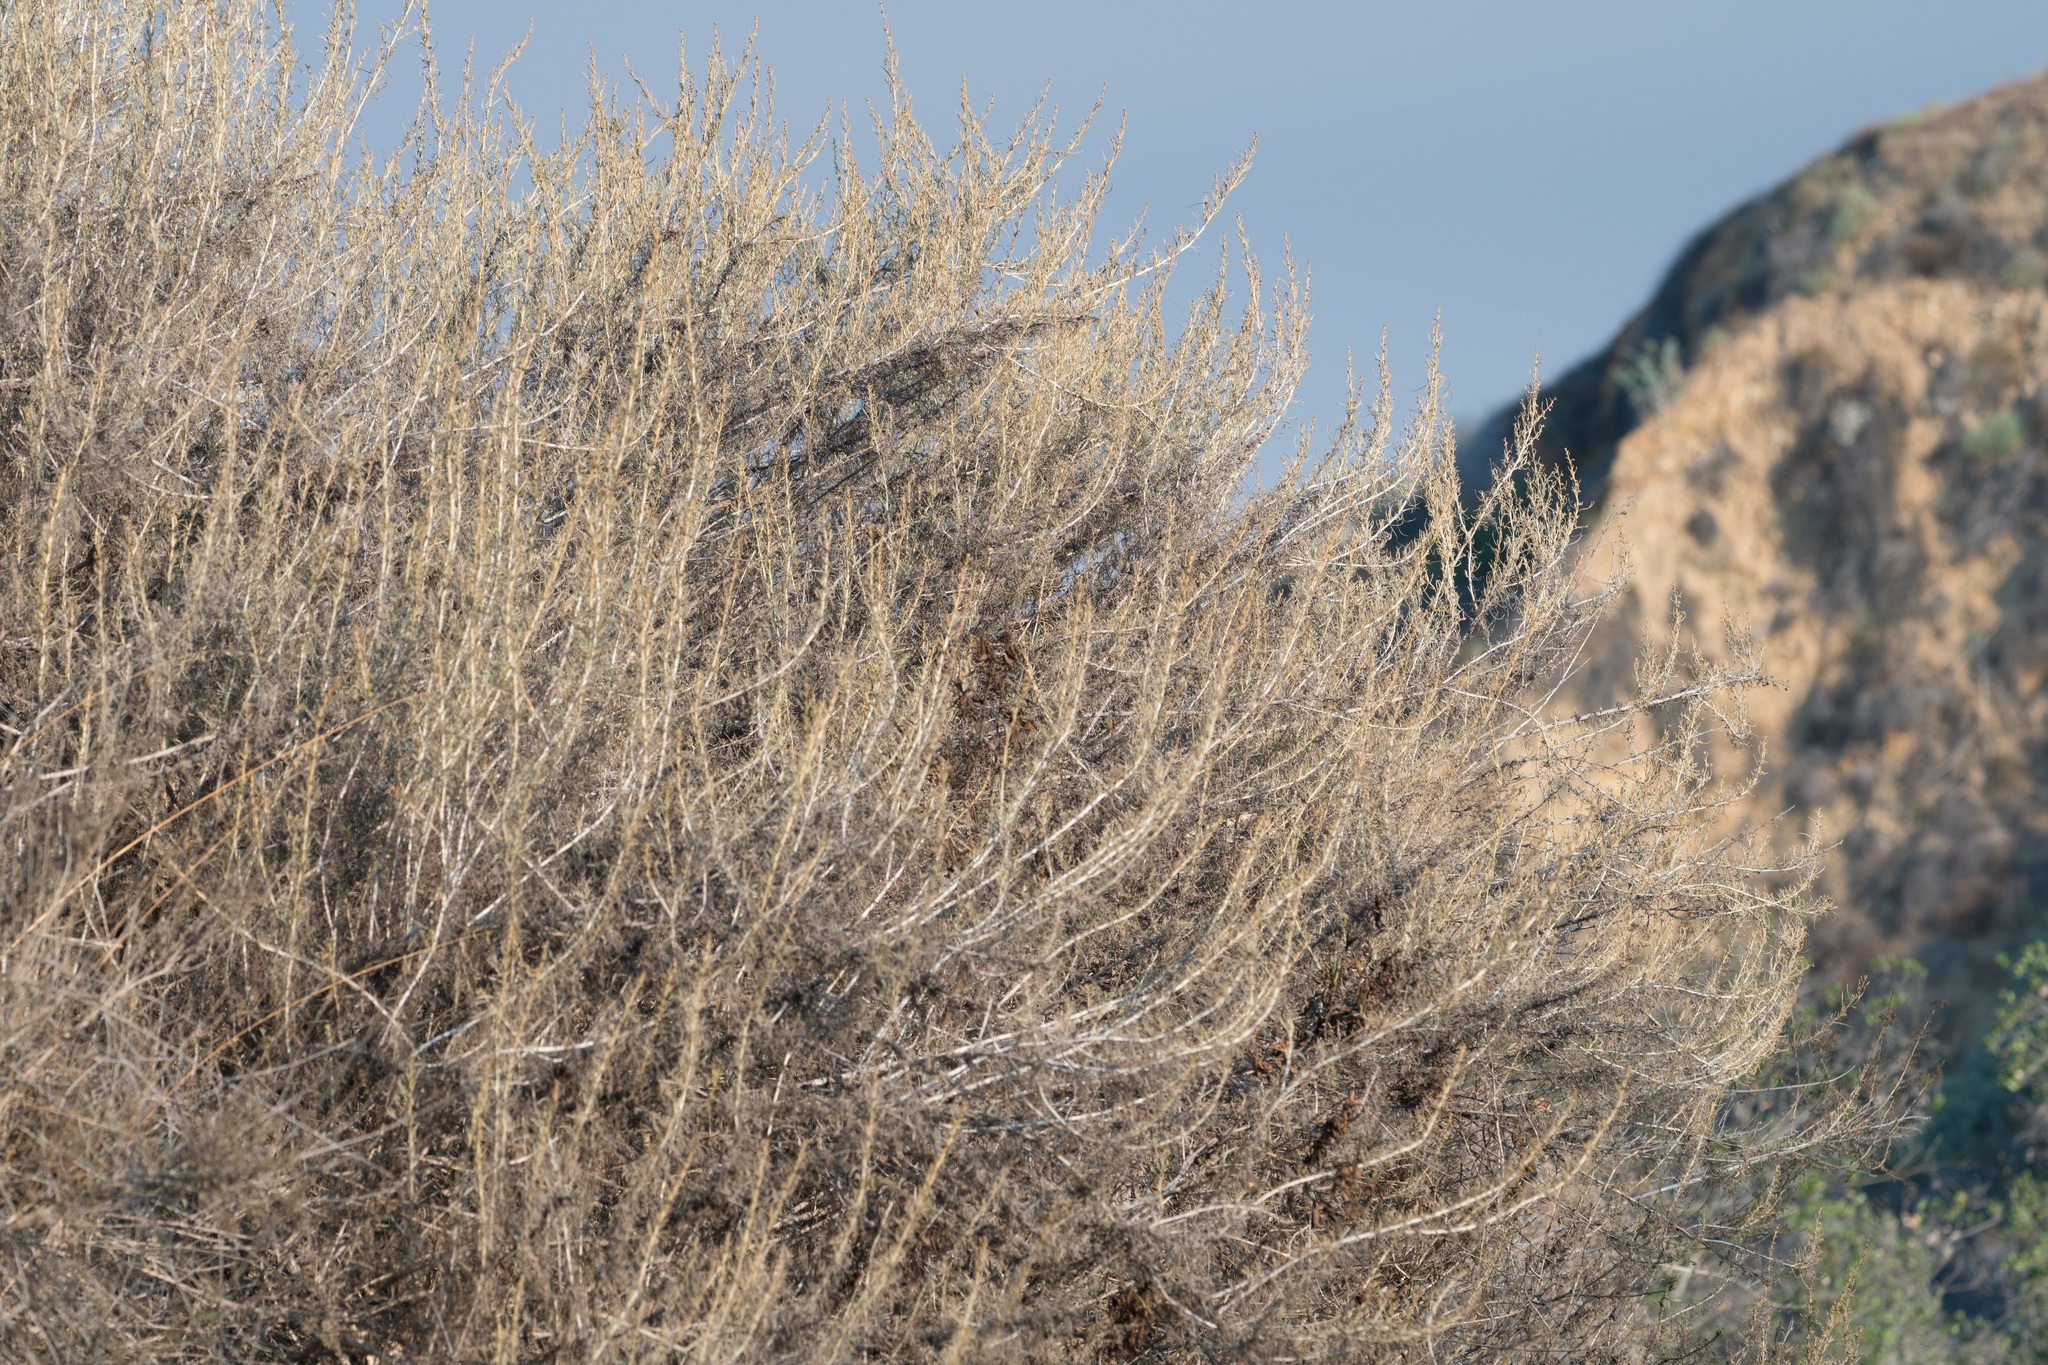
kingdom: Plantae
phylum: Tracheophyta
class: Magnoliopsida
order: Asterales
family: Asteraceae
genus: Artemisia
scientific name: Artemisia californica
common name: California sagebrush
